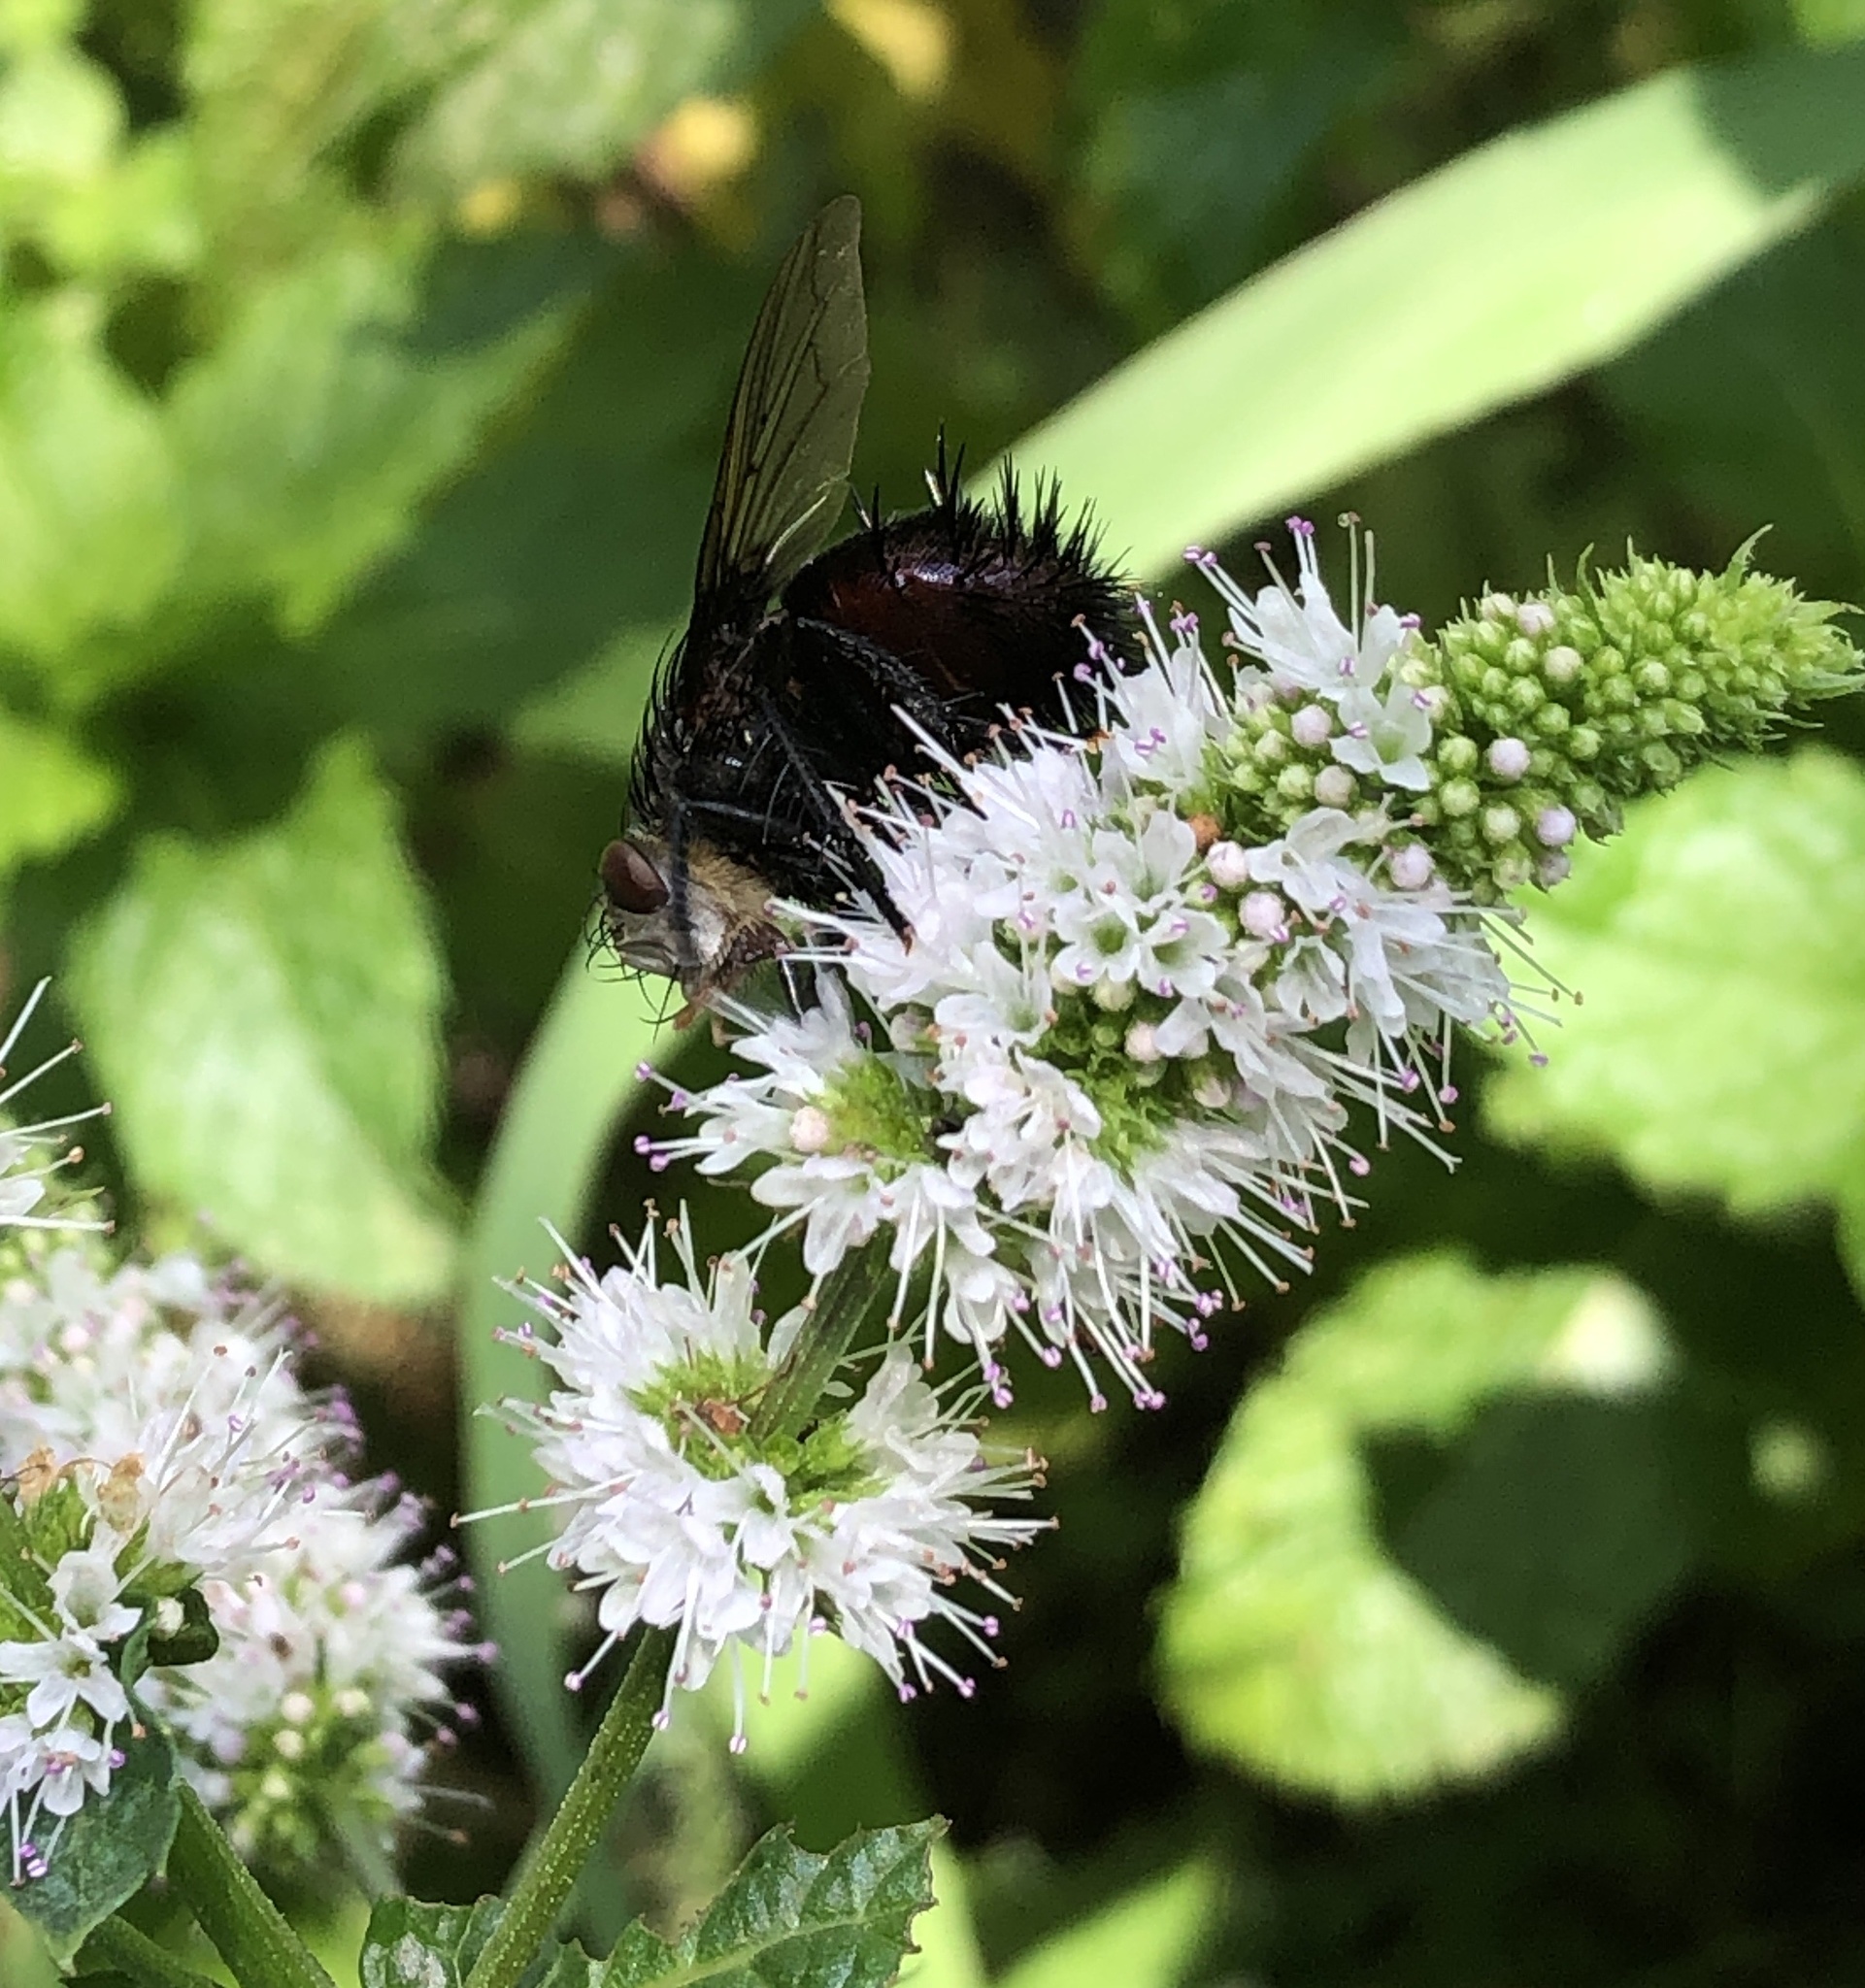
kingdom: Animalia
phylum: Arthropoda
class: Insecta
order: Diptera
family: Tachinidae
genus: Juriniopsis
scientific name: Juriniopsis adusta
